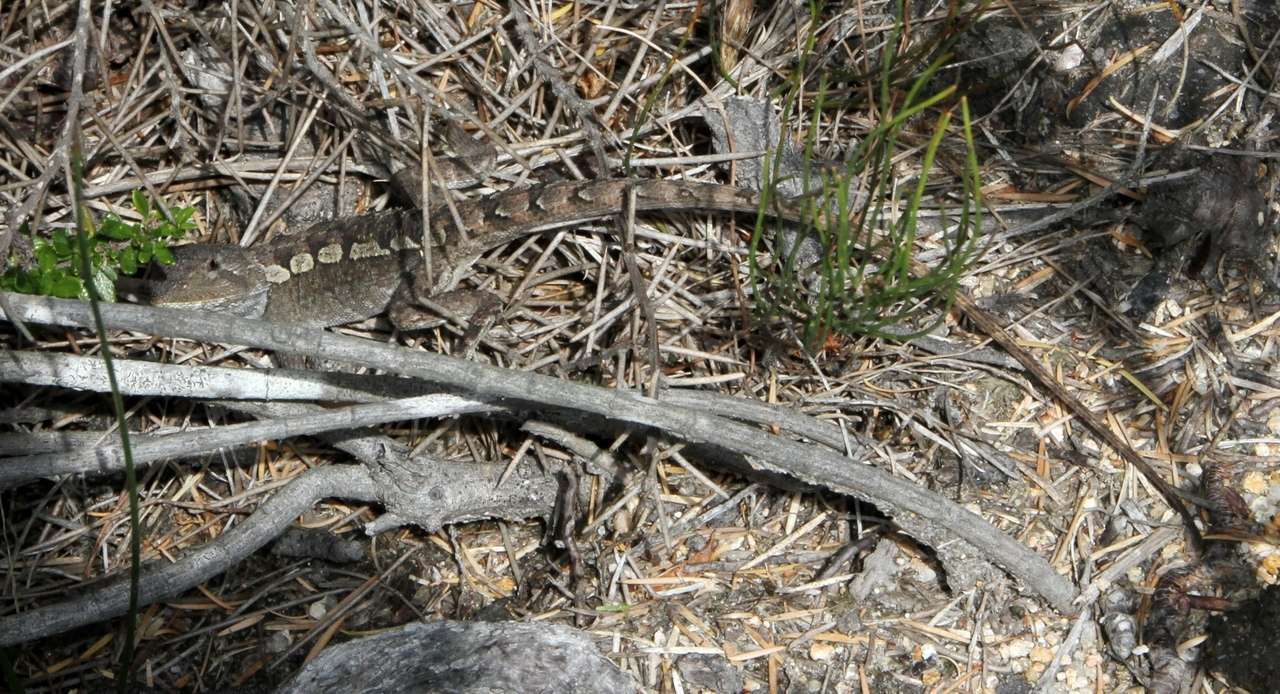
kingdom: Animalia
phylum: Chordata
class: Squamata
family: Agamidae
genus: Amphibolurus
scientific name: Amphibolurus muricatus
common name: Jacky lizard
